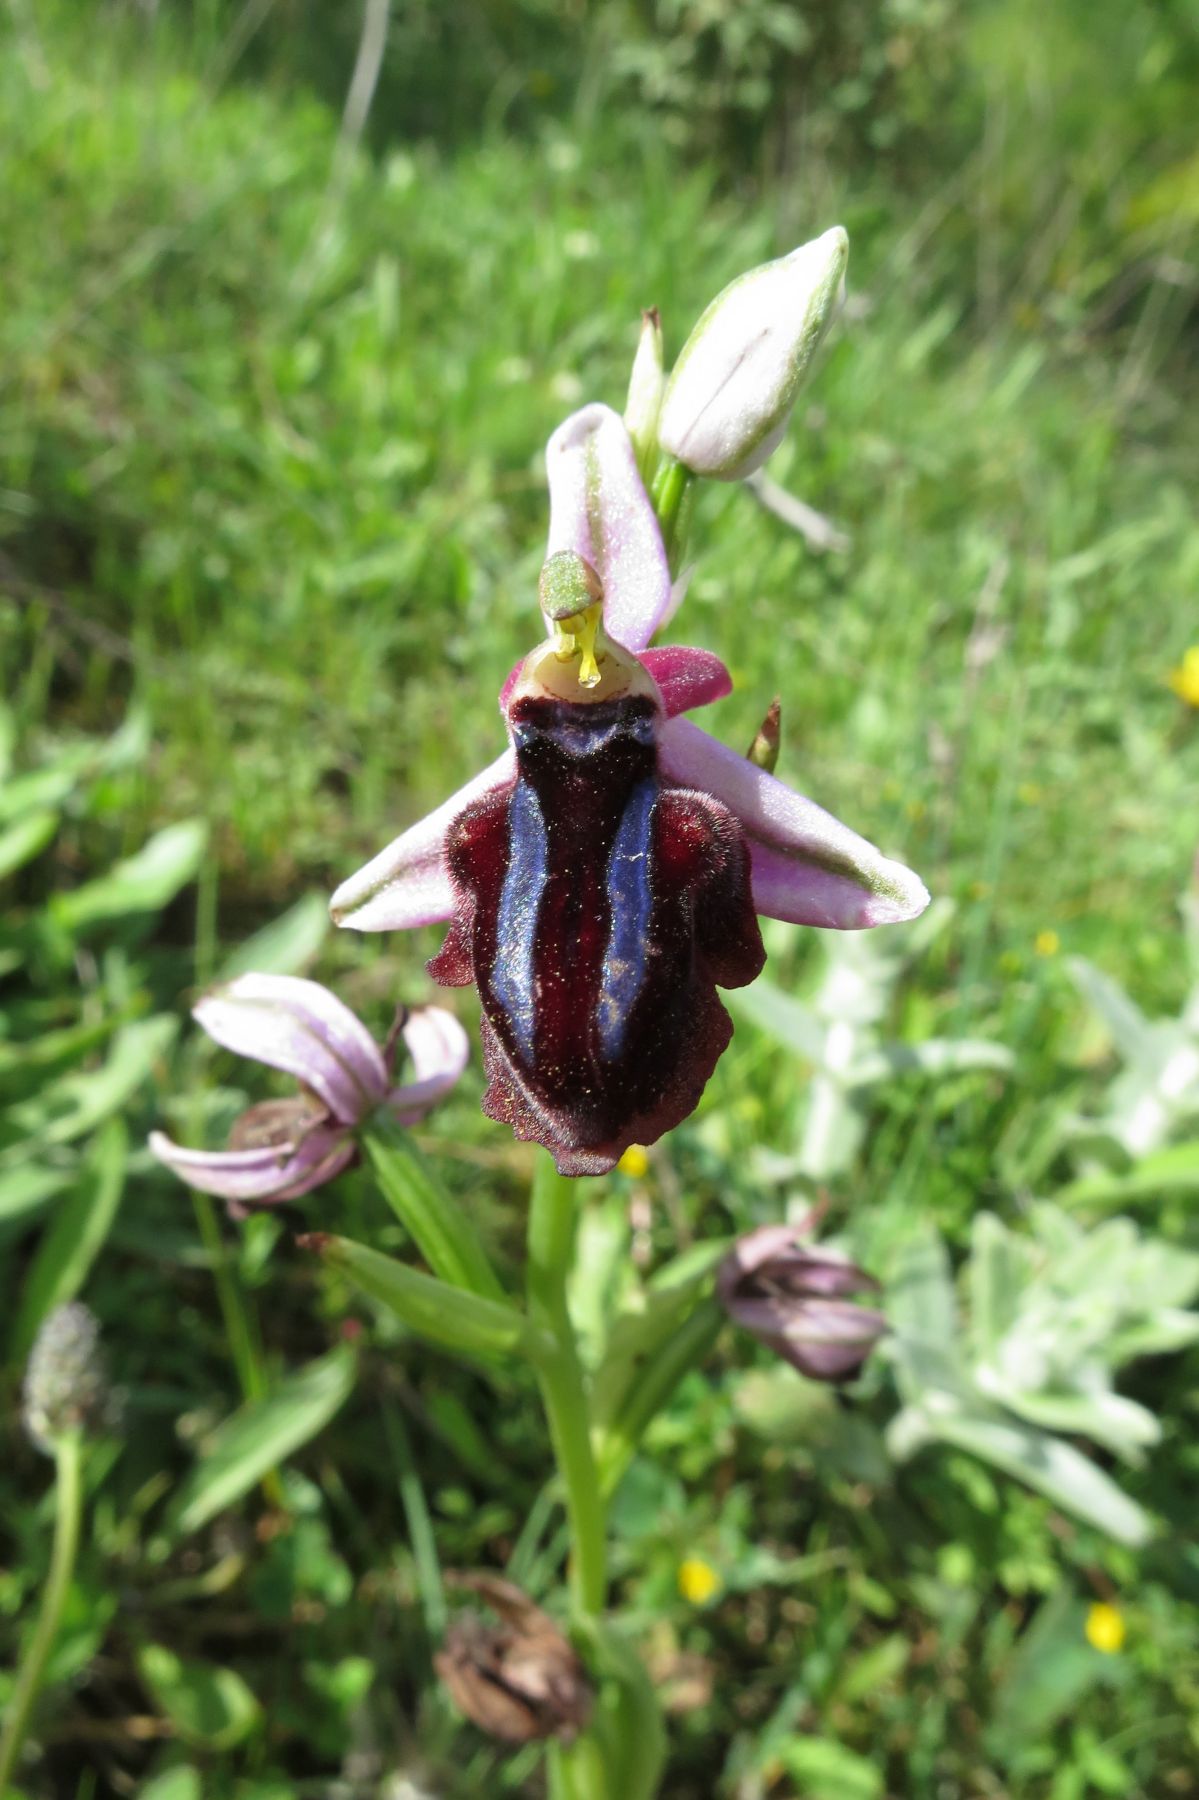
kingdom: Plantae
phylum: Tracheophyta
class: Liliopsida
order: Asparagales
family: Orchidaceae
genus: Ophrys
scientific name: Ophrys sphegodes
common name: Early spider-orchid
